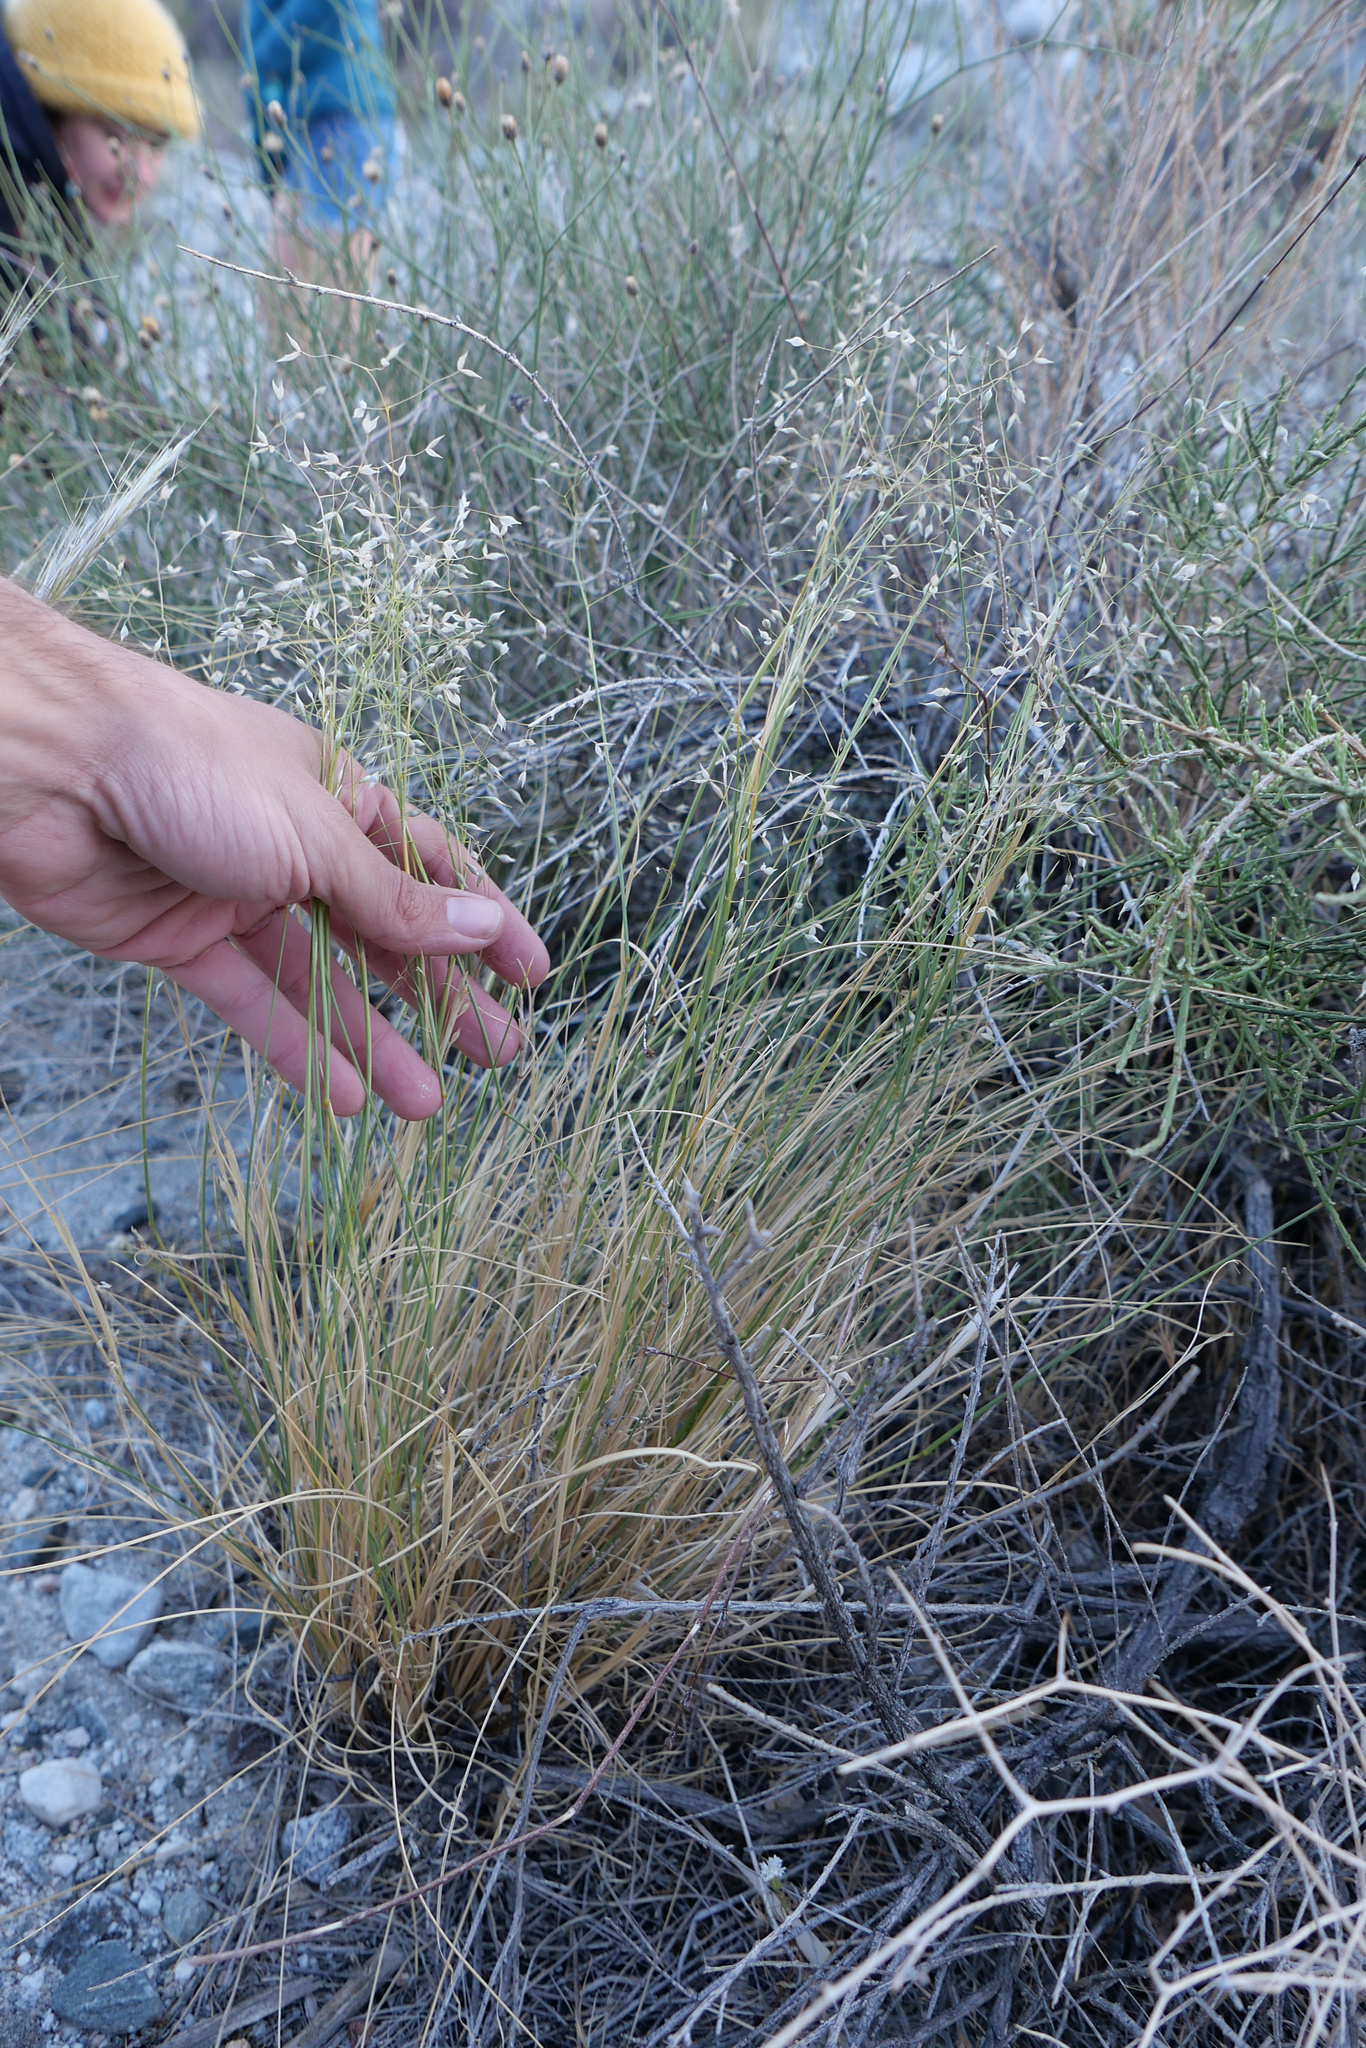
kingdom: Plantae
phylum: Tracheophyta
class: Liliopsida
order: Poales
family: Poaceae
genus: Eriocoma
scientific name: Eriocoma hymenoides
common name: Indian mountain ricegrass
